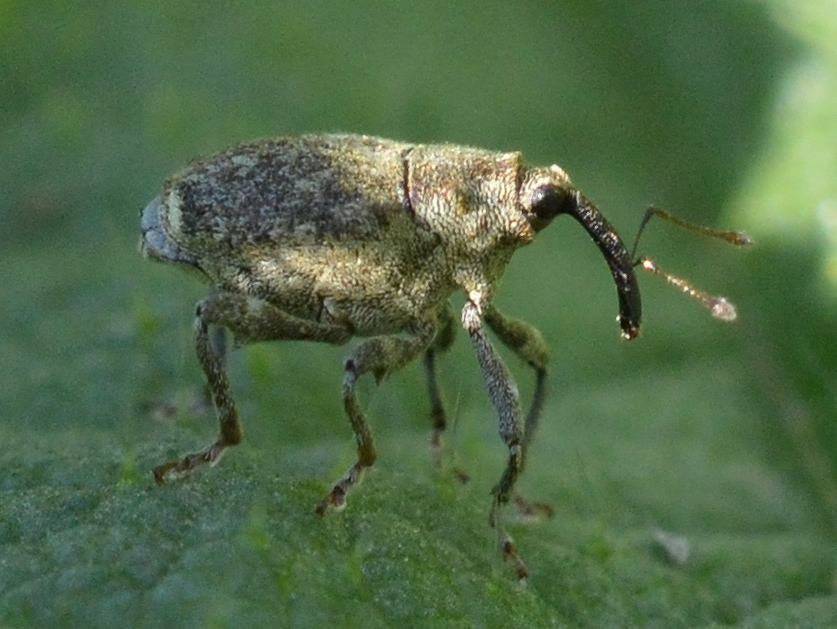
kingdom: Animalia
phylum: Arthropoda
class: Insecta
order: Coleoptera
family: Curculionidae
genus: Parethelcus
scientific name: Parethelcus pollinarius
